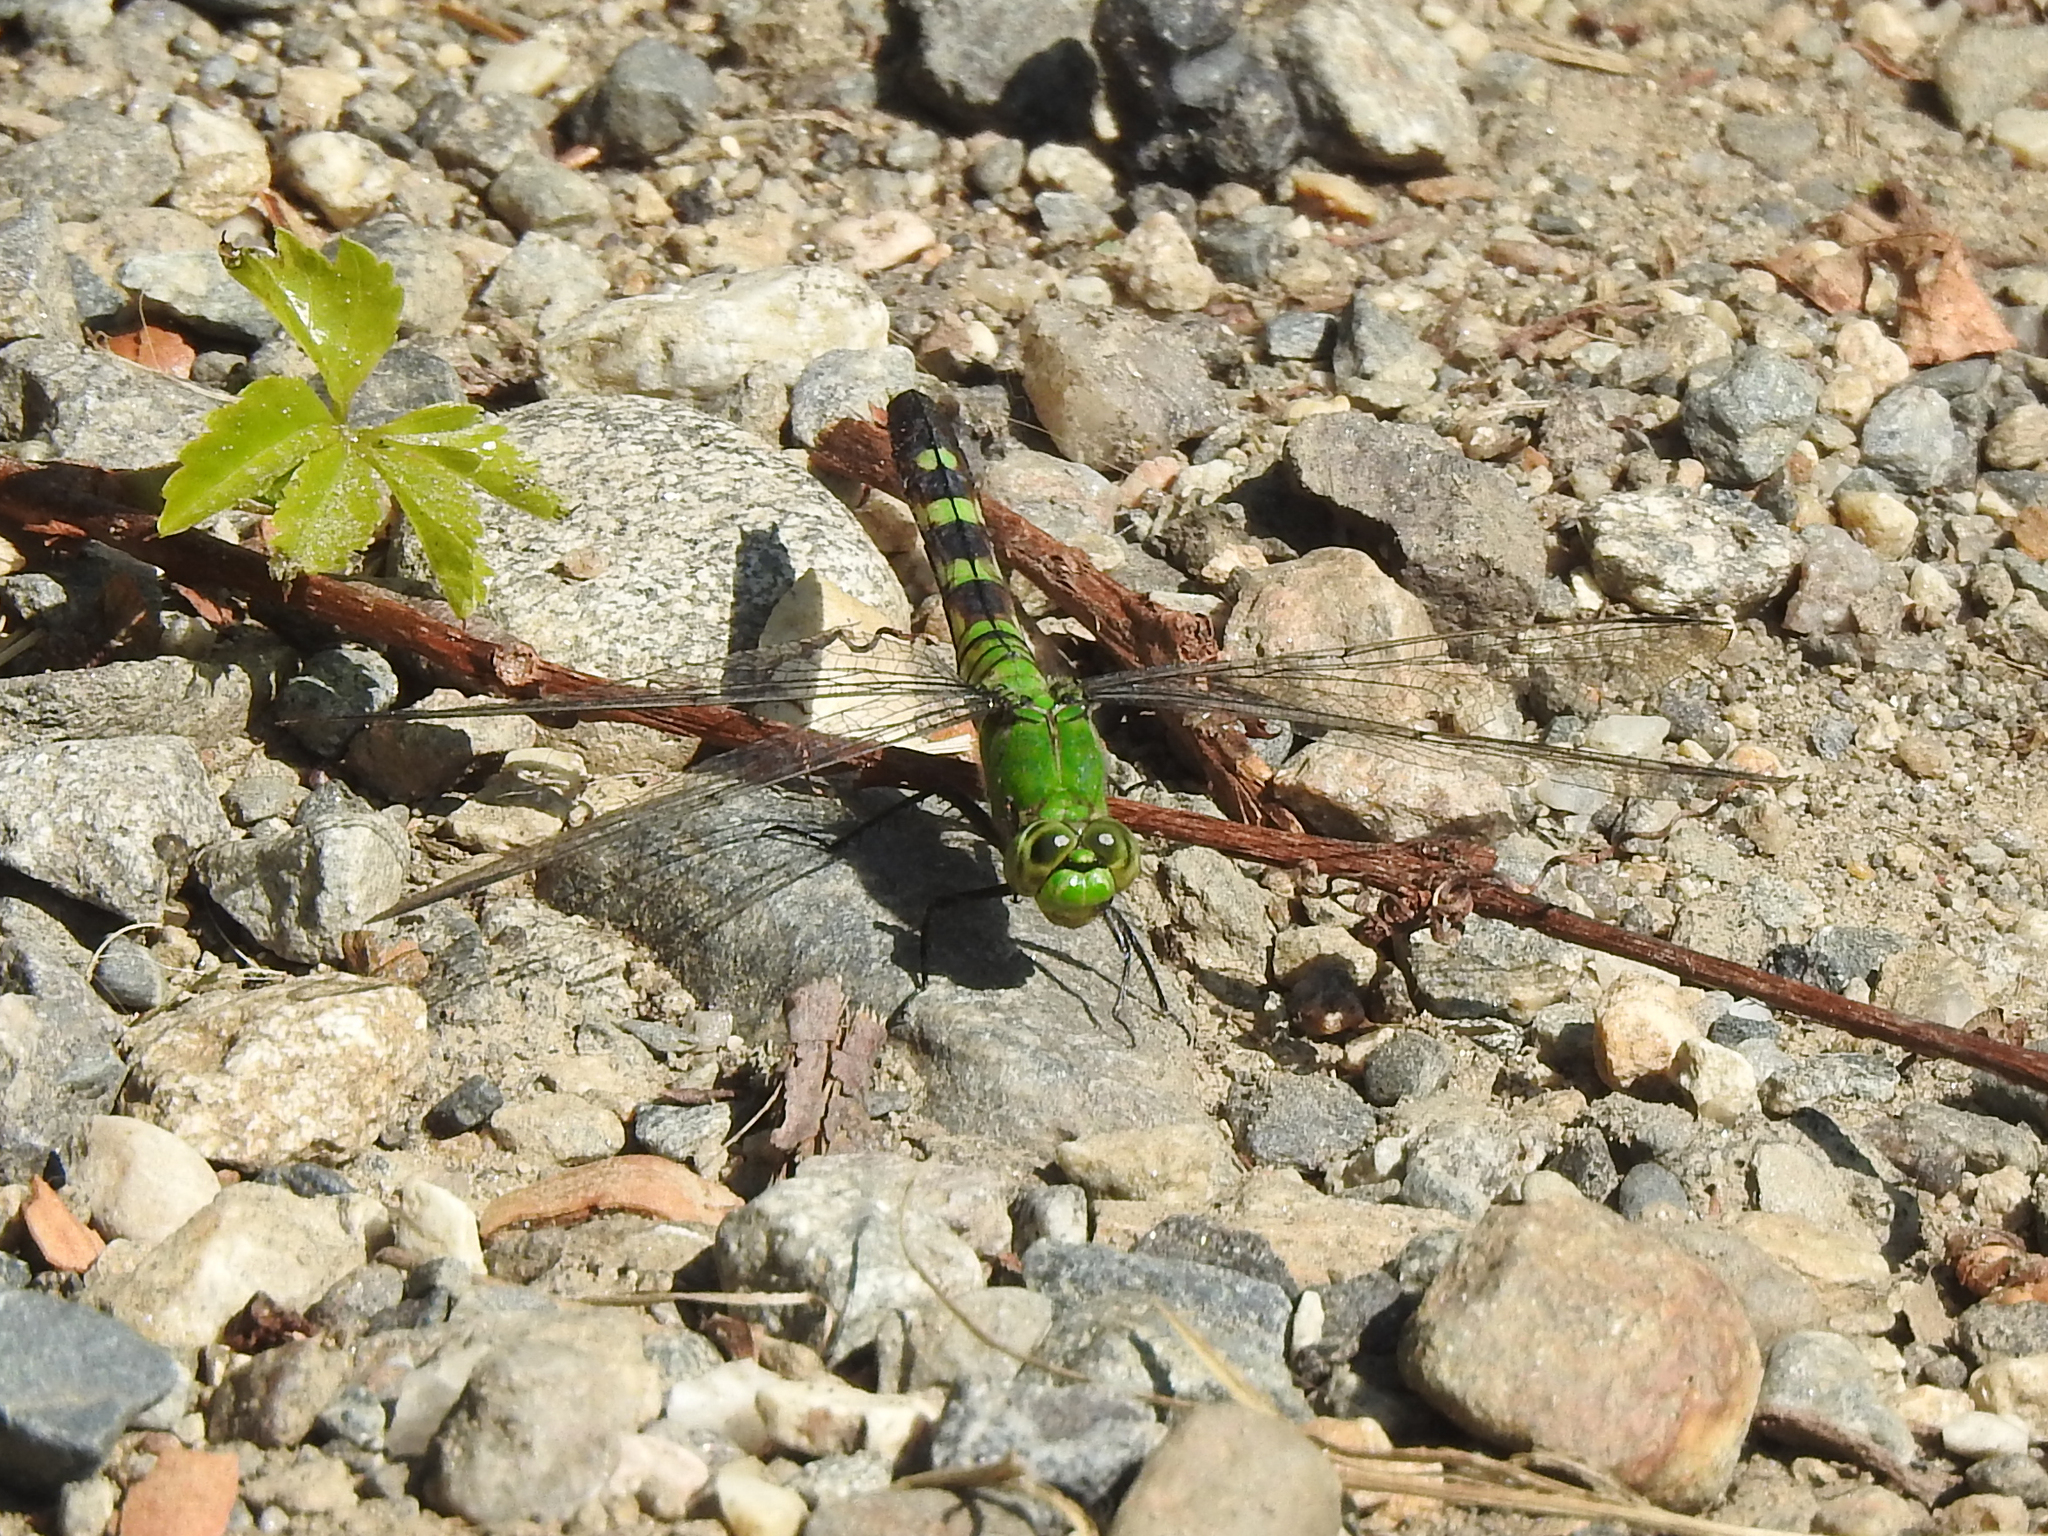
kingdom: Animalia
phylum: Arthropoda
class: Insecta
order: Odonata
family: Libellulidae
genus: Erythemis
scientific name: Erythemis simplicicollis
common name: Eastern pondhawk
